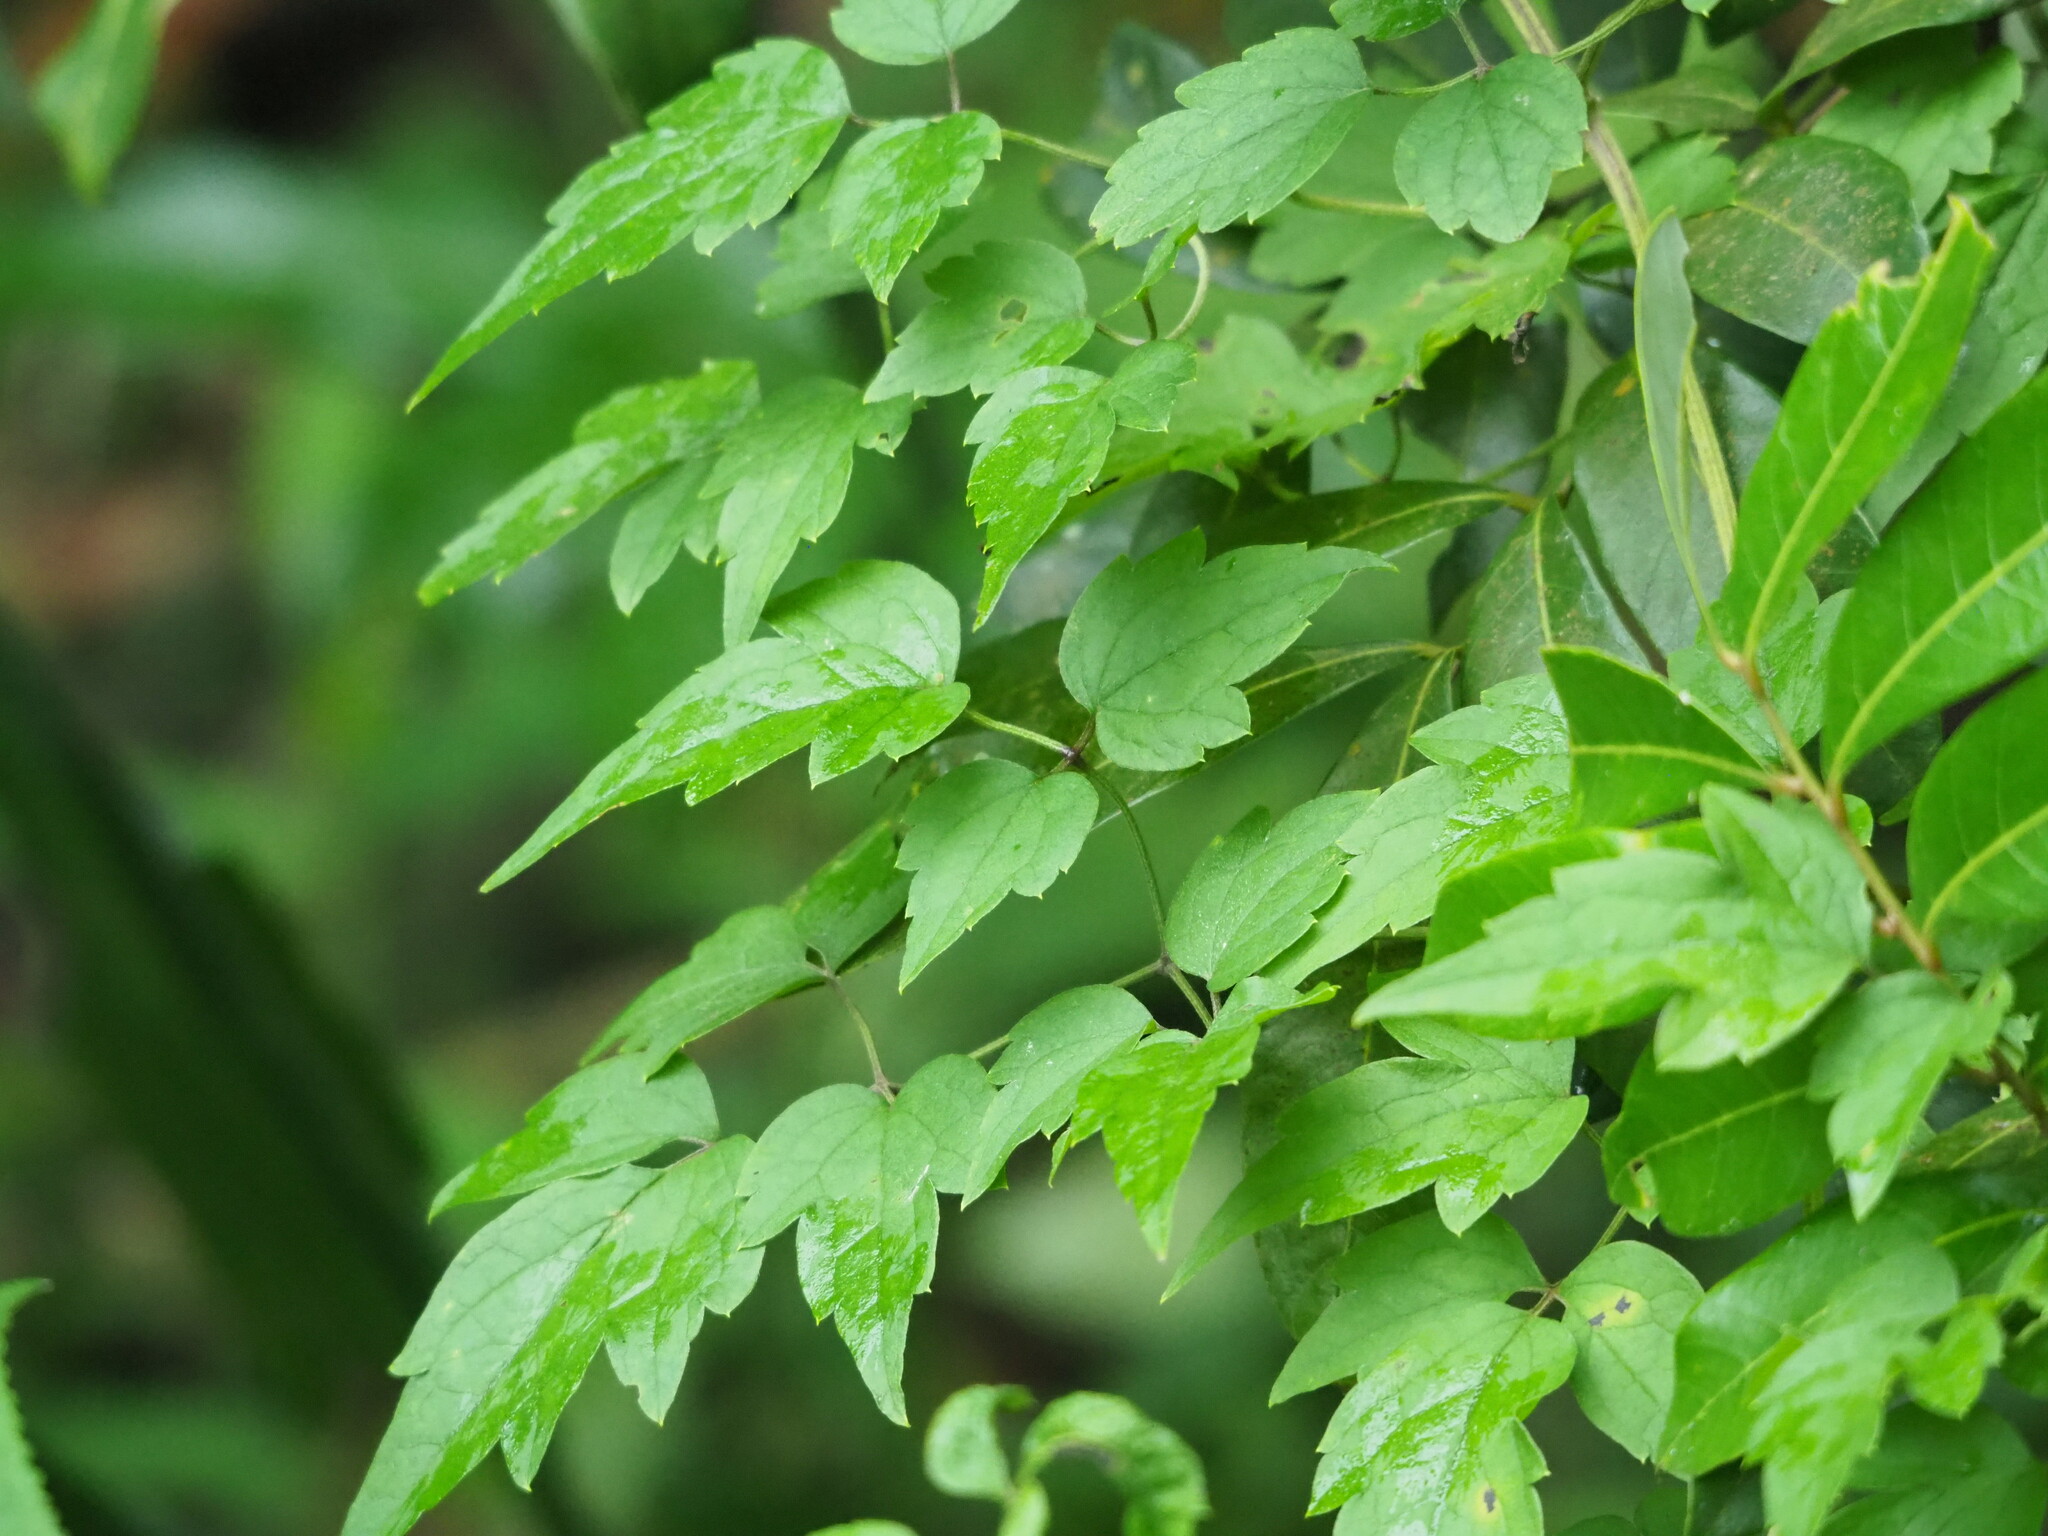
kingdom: Plantae
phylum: Tracheophyta
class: Magnoliopsida
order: Ranunculales
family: Ranunculaceae
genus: Clematis
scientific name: Clematis grata
